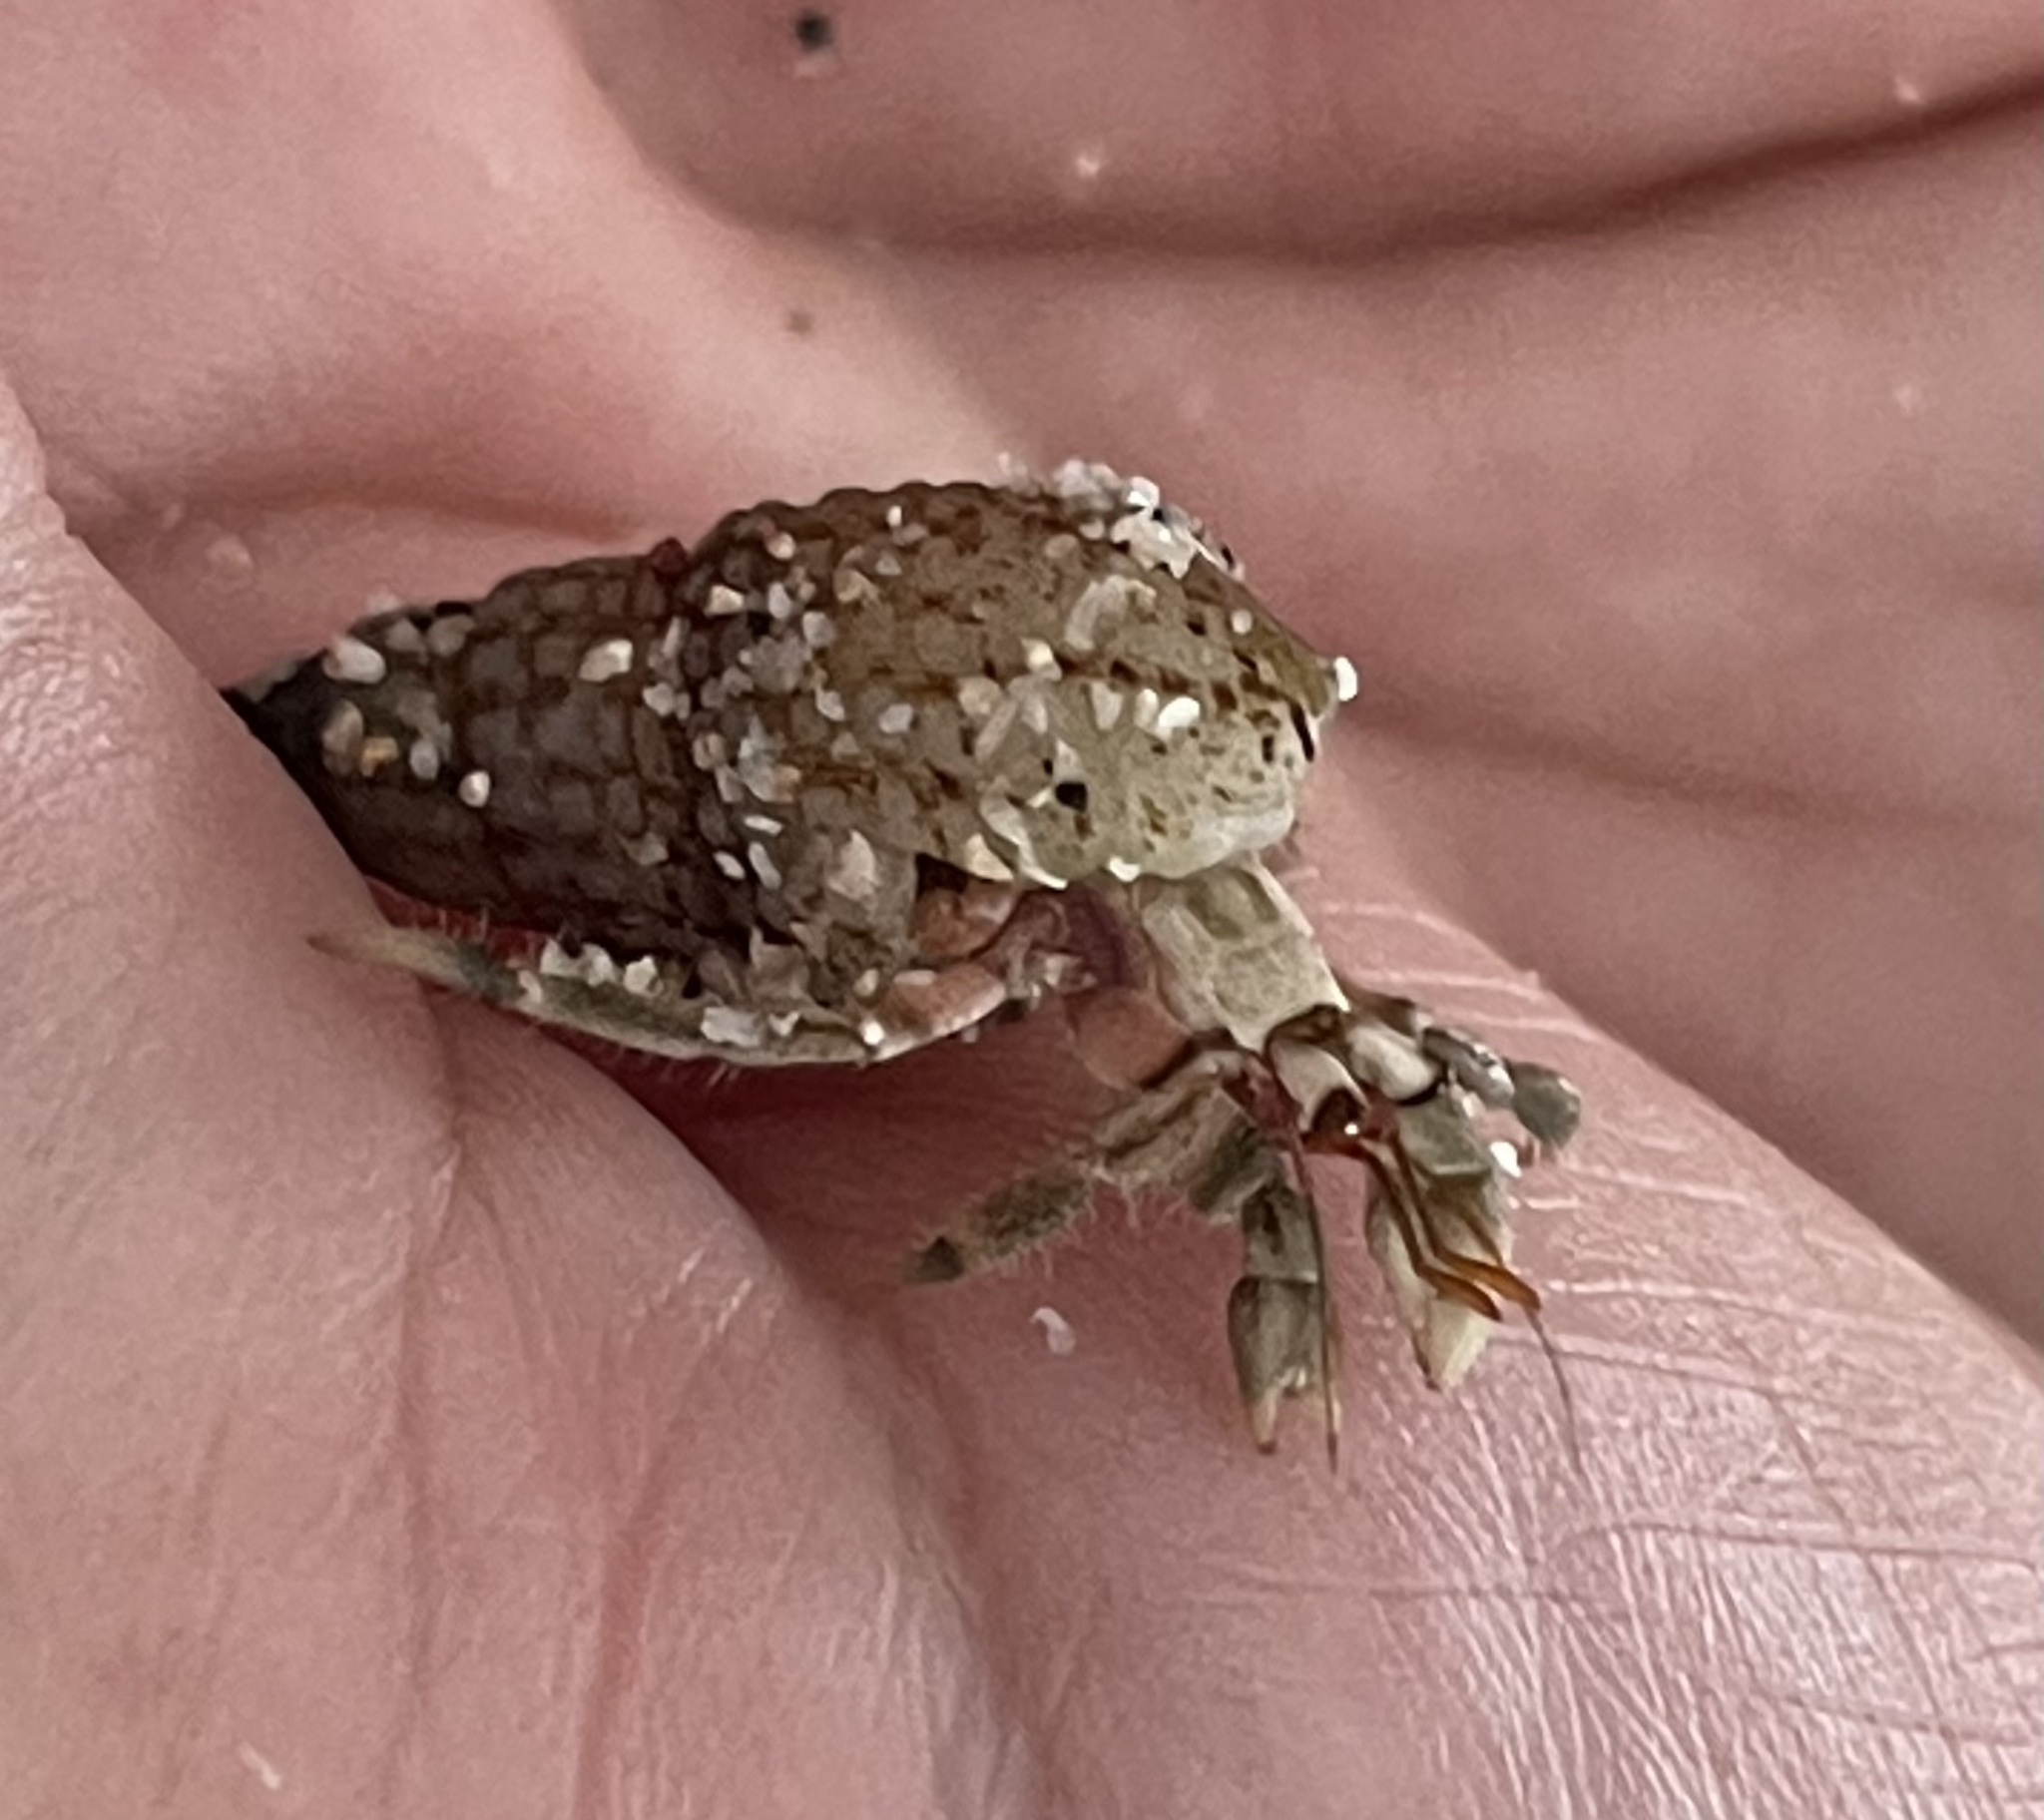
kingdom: Animalia
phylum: Arthropoda
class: Malacostraca
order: Decapoda
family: Coenobitidae
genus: Coenobita
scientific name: Coenobita rugosus
